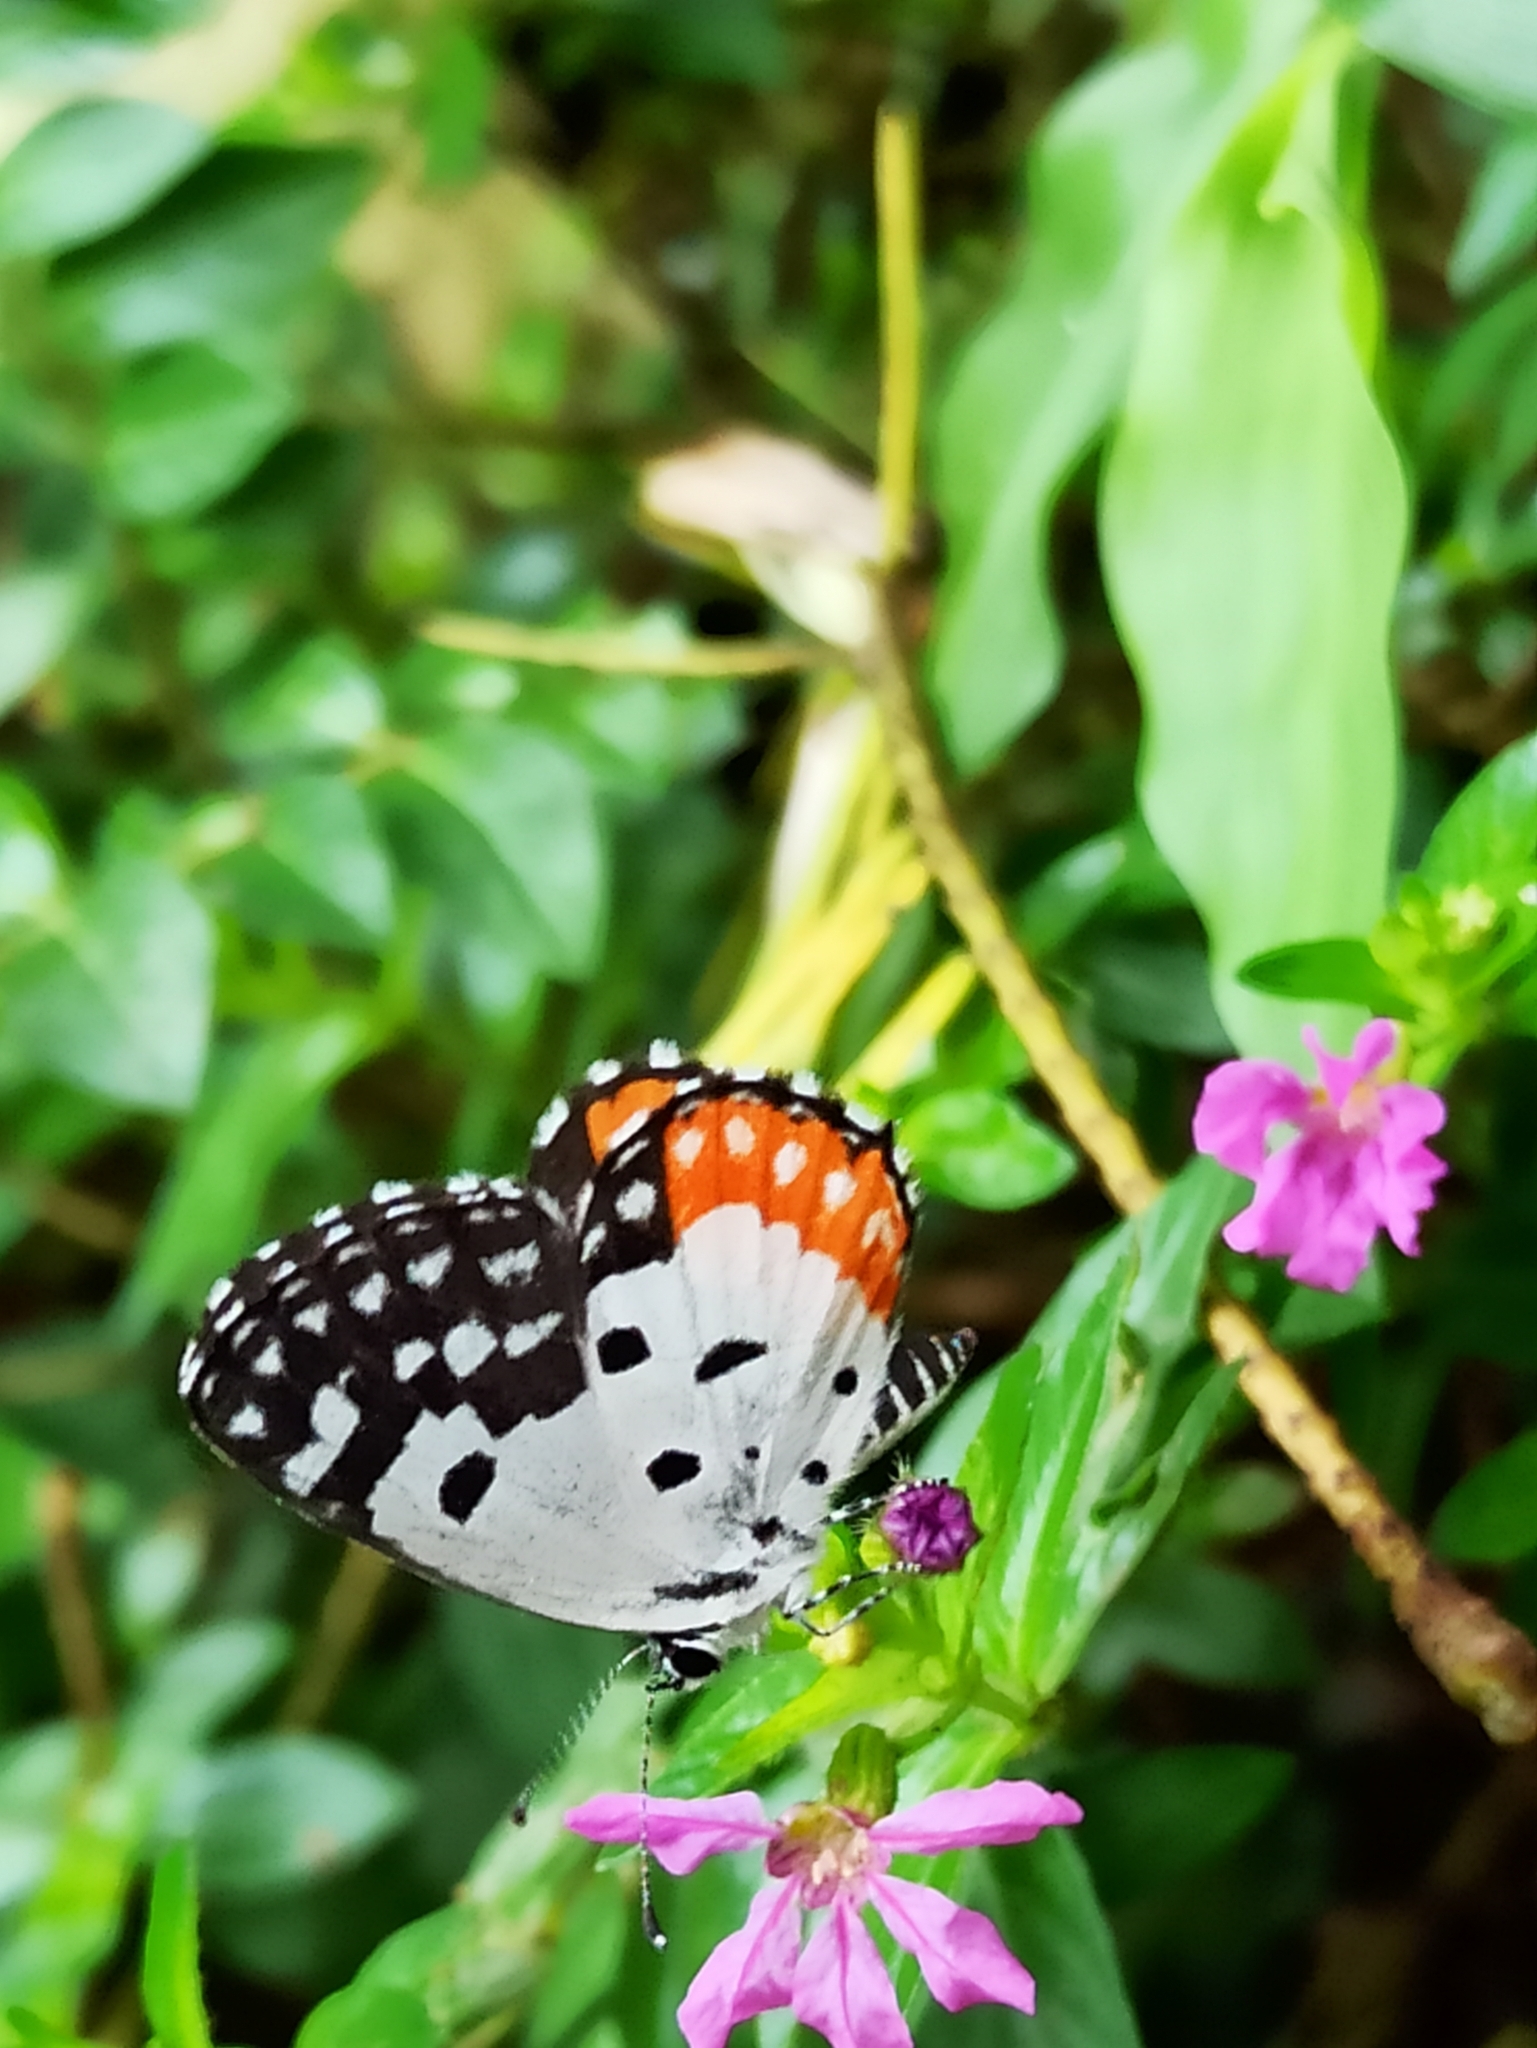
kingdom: Animalia
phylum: Arthropoda
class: Insecta
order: Lepidoptera
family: Lycaenidae
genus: Talicada
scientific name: Talicada nyseus
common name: Red pierrot
